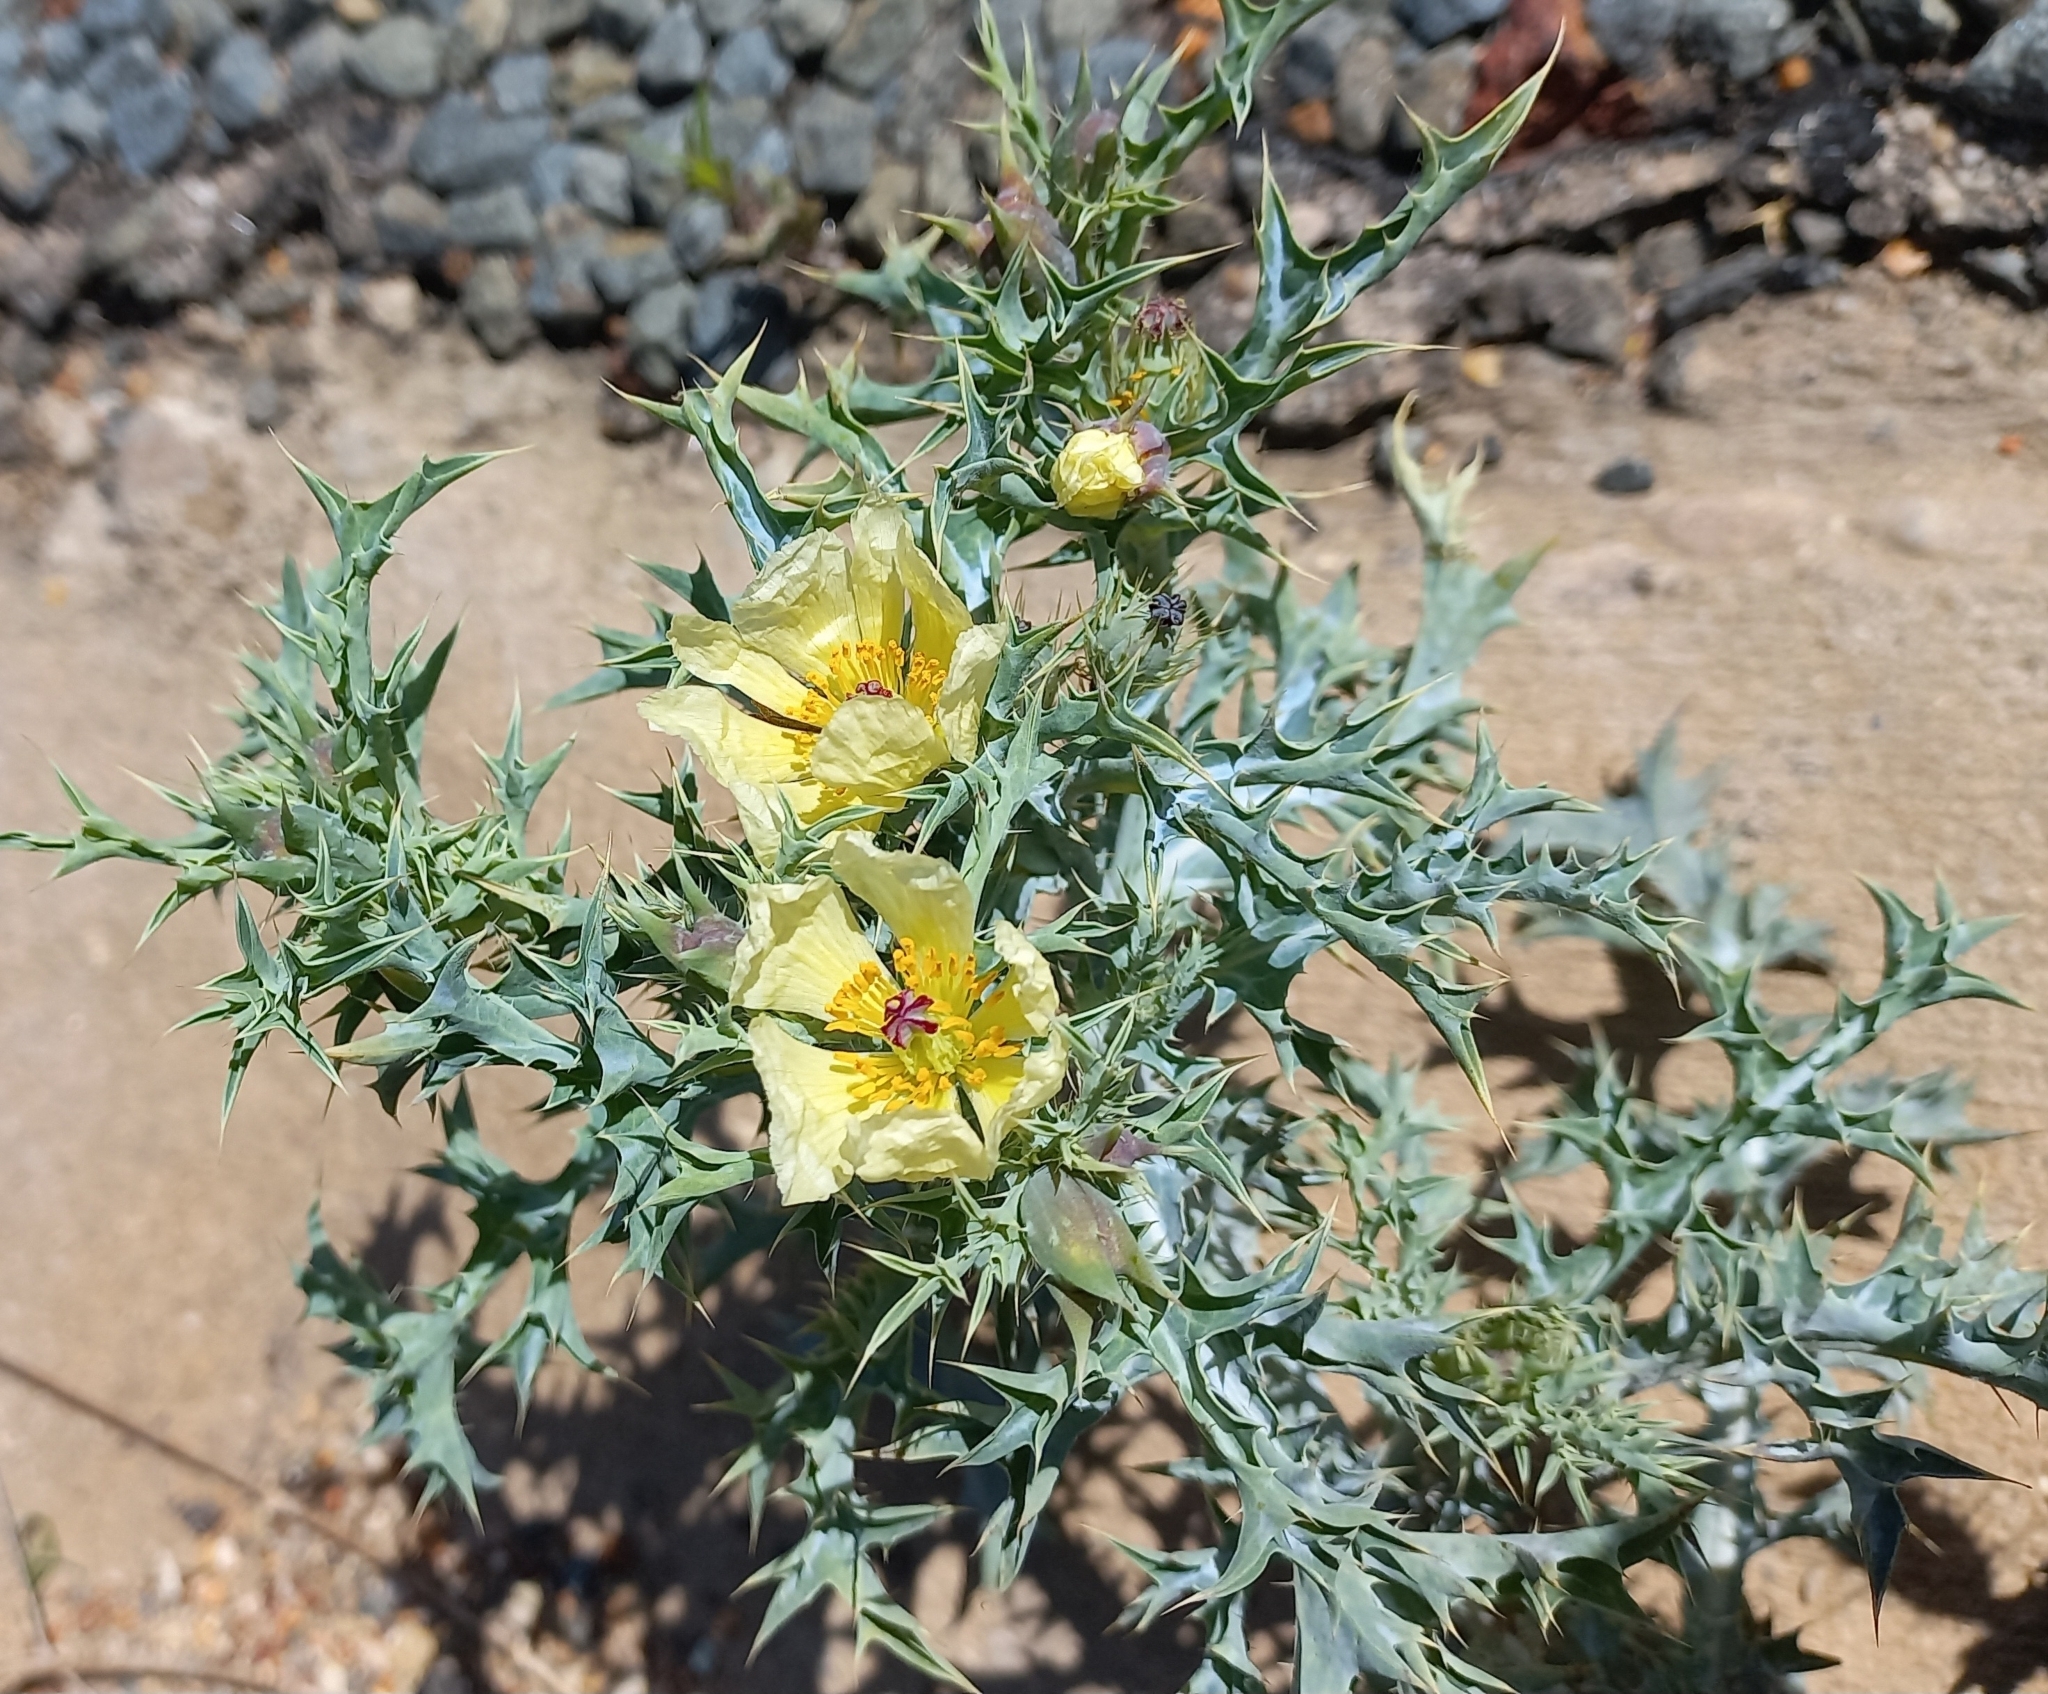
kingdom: Plantae
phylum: Tracheophyta
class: Magnoliopsida
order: Ranunculales
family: Papaveraceae
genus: Argemone
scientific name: Argemone ochroleuca
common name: White-flower mexican-poppy
